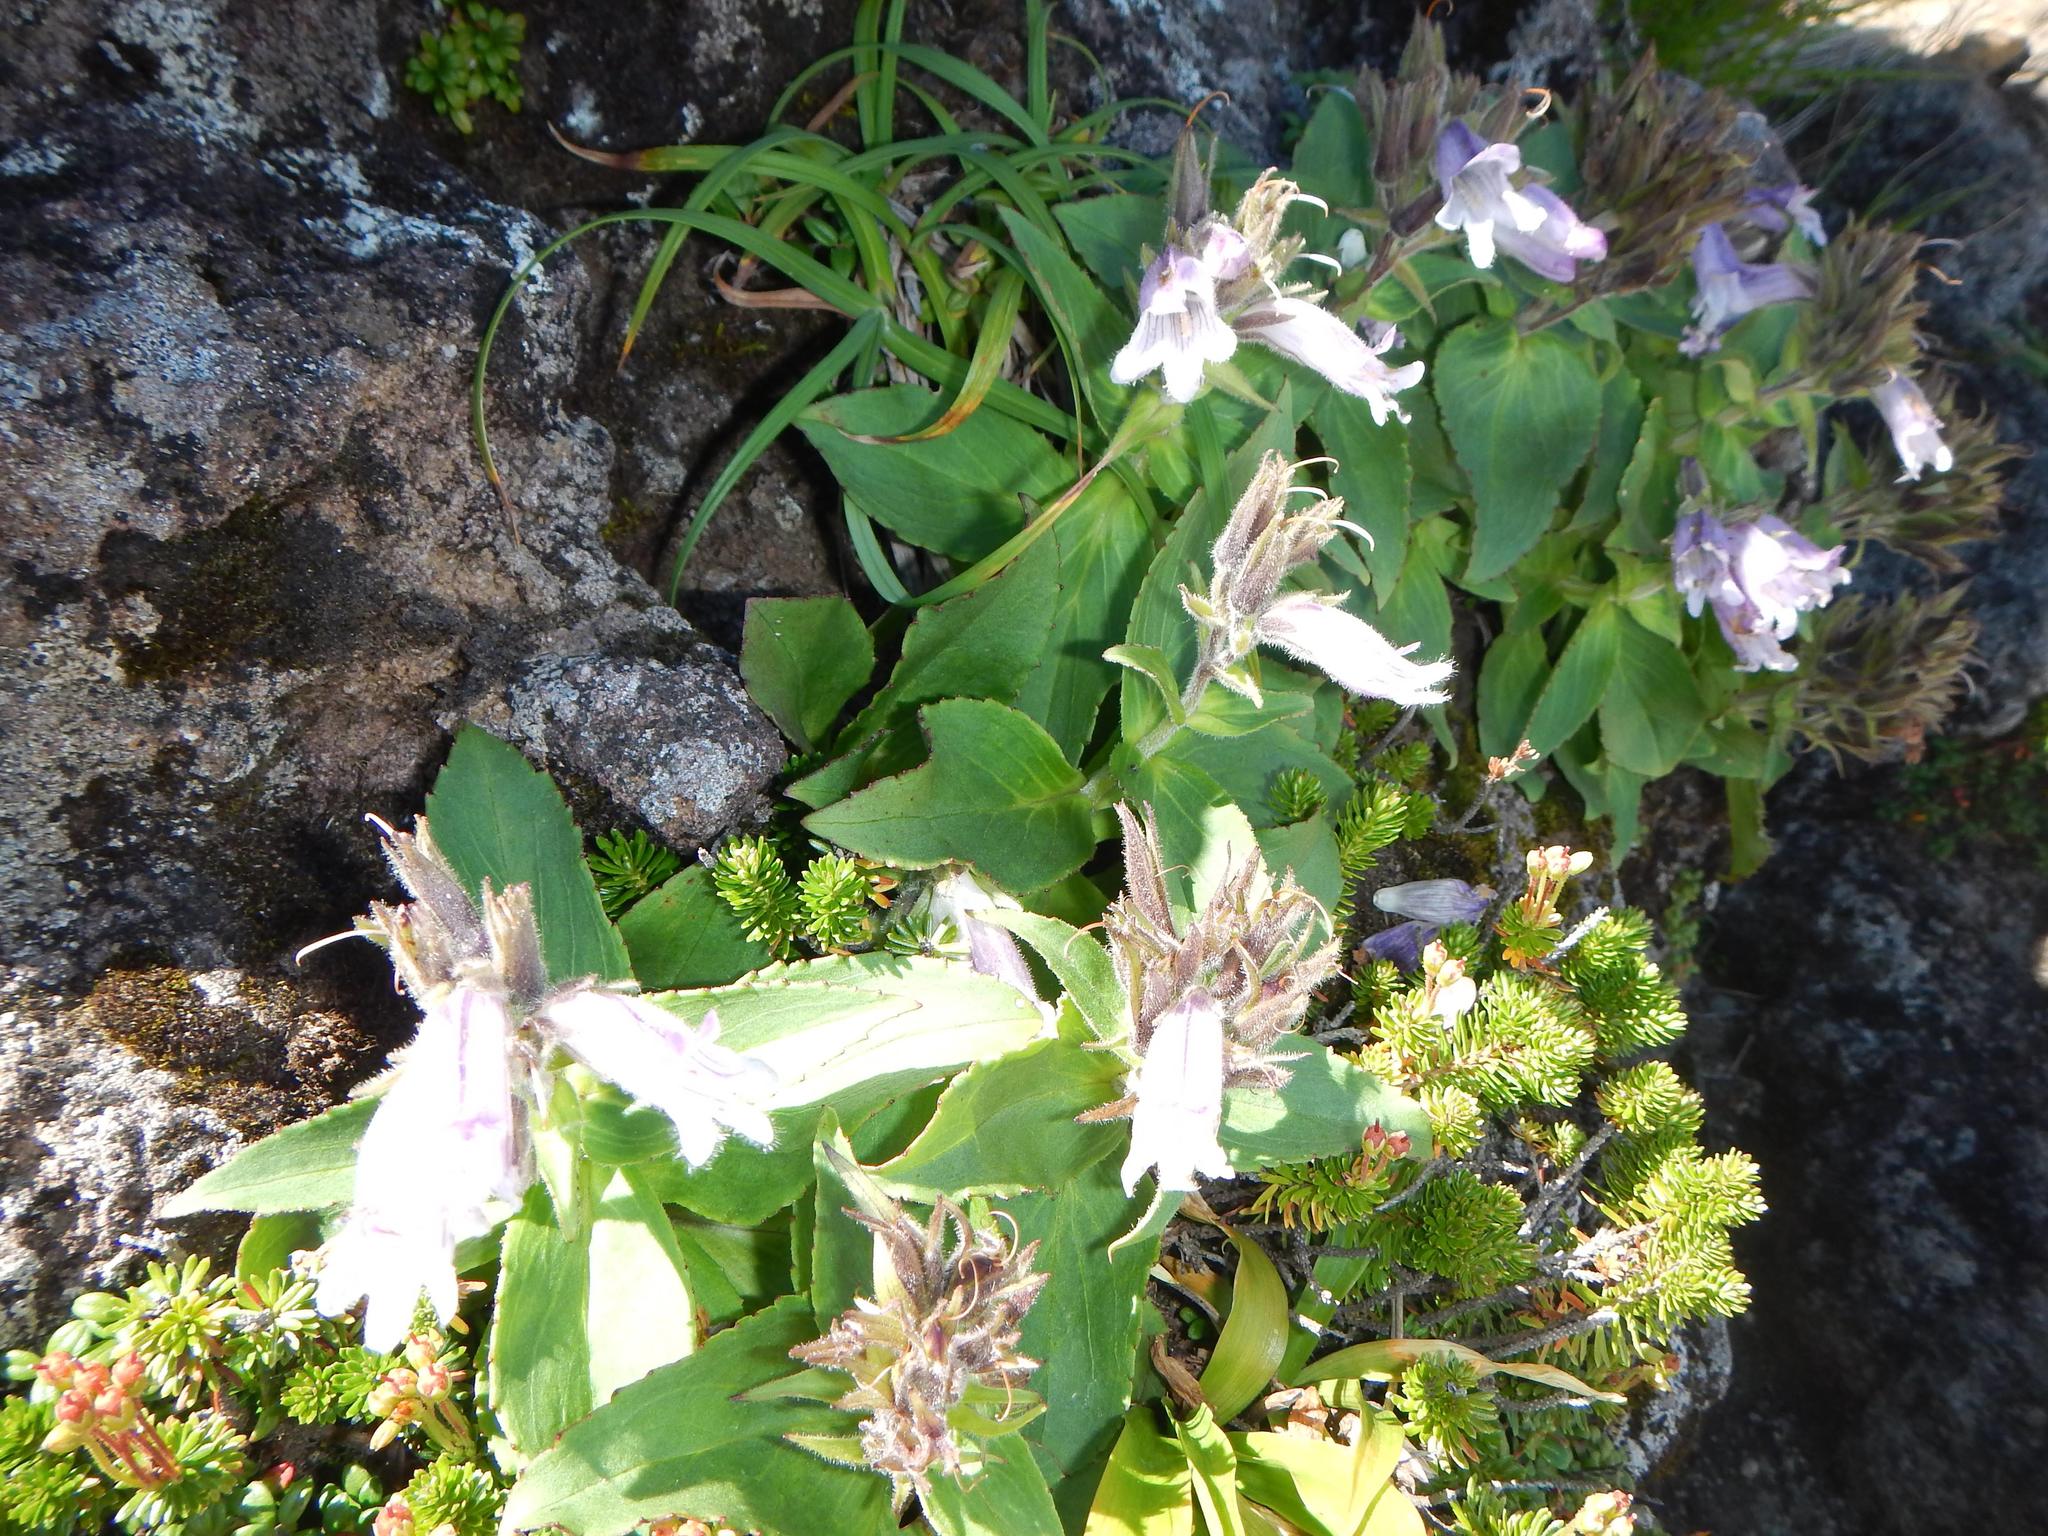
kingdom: Plantae
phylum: Tracheophyta
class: Magnoliopsida
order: Lamiales
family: Plantaginaceae
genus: Pennellianthus
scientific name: Pennellianthus frutescens
